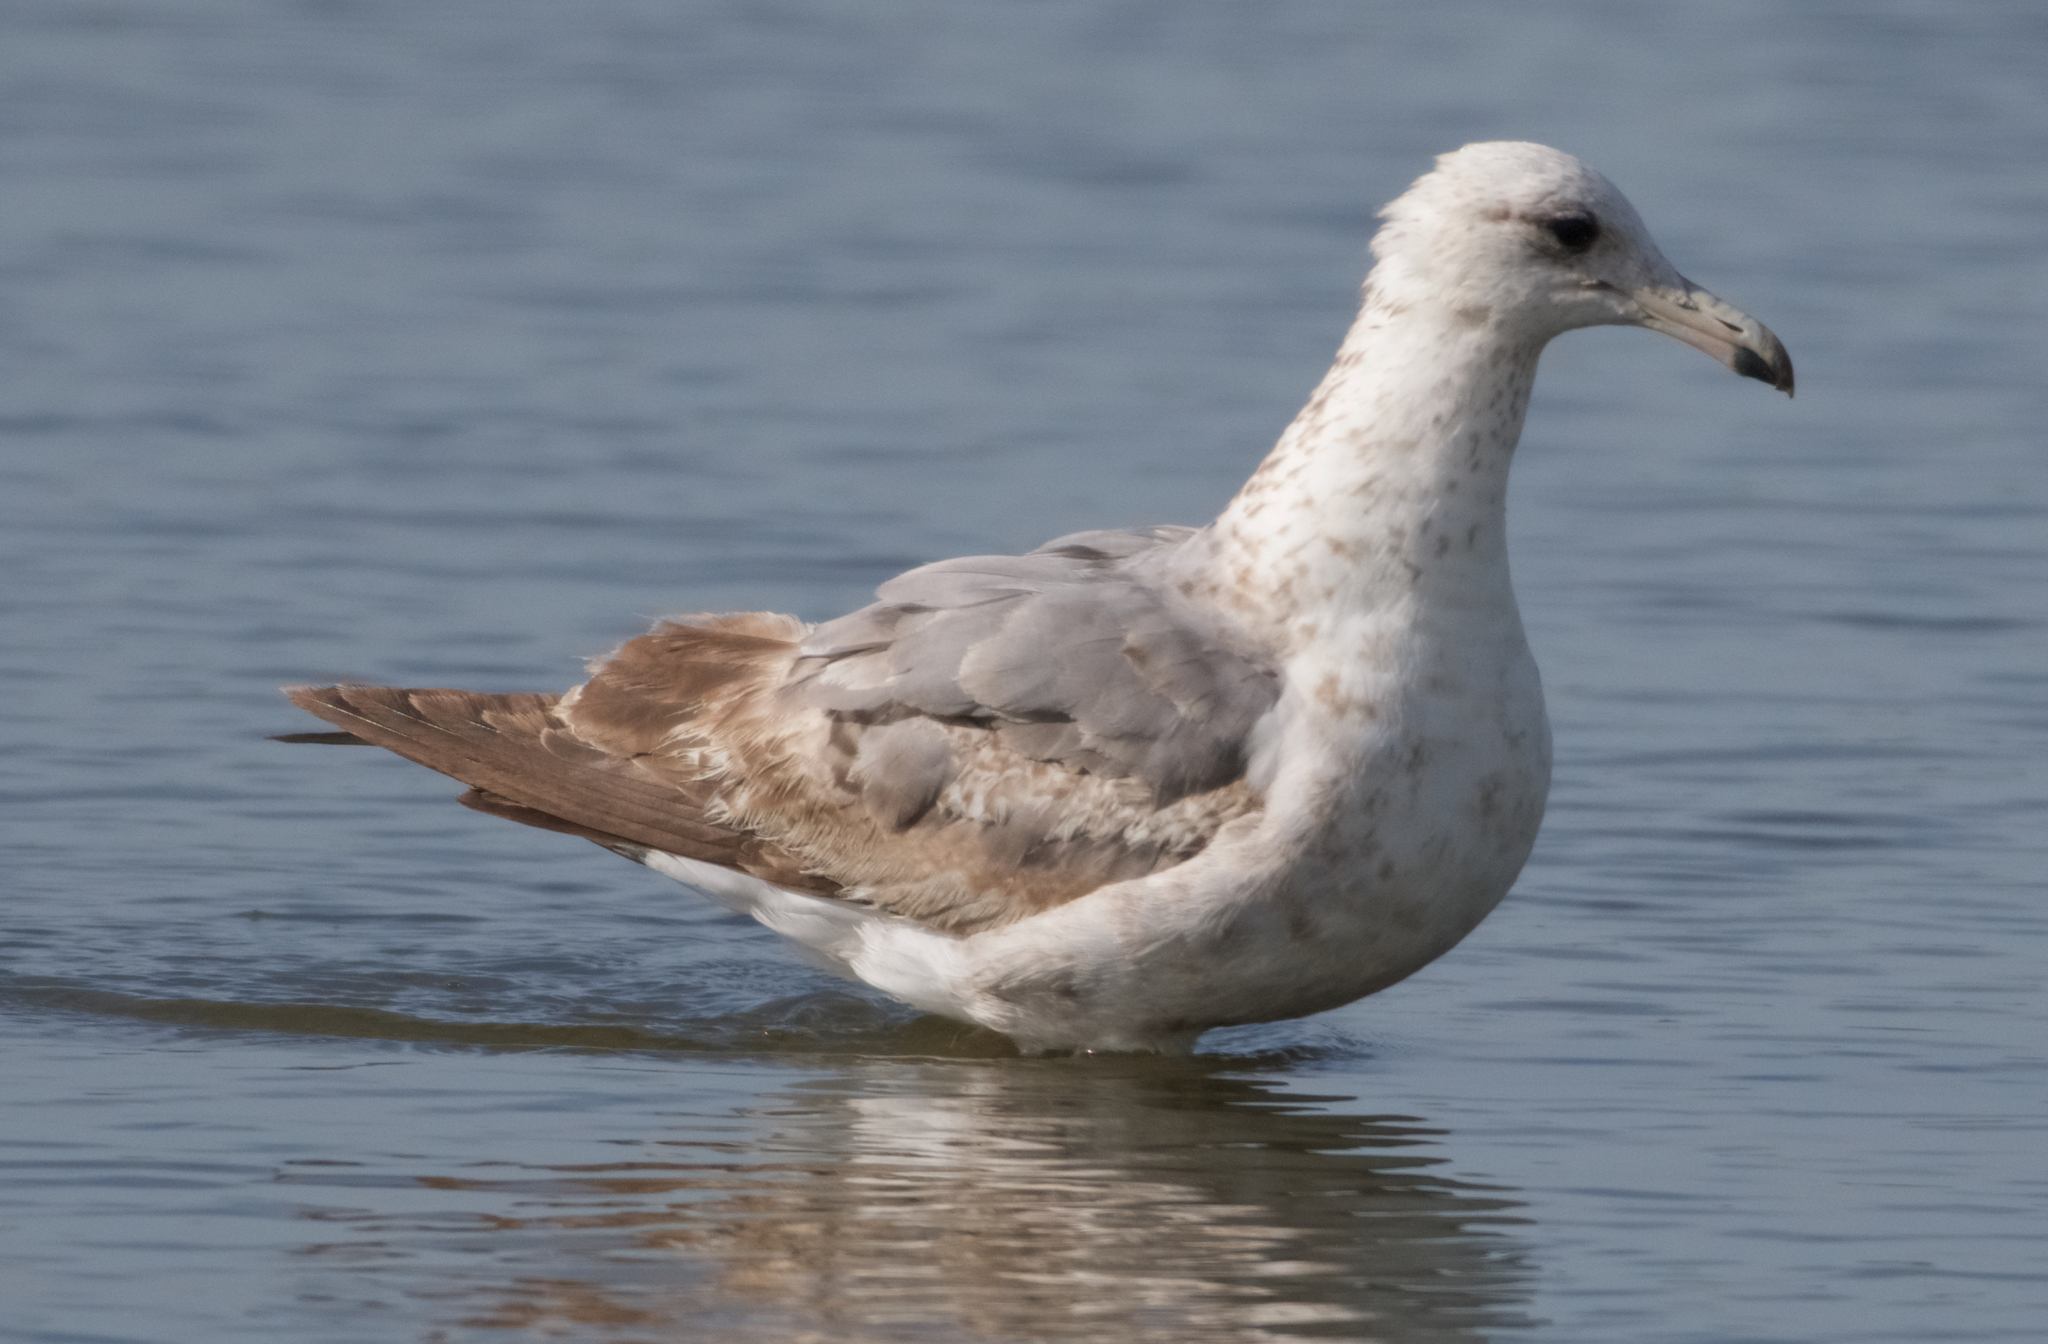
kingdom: Animalia
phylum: Chordata
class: Aves
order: Charadriiformes
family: Laridae
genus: Larus
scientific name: Larus californicus
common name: California gull
